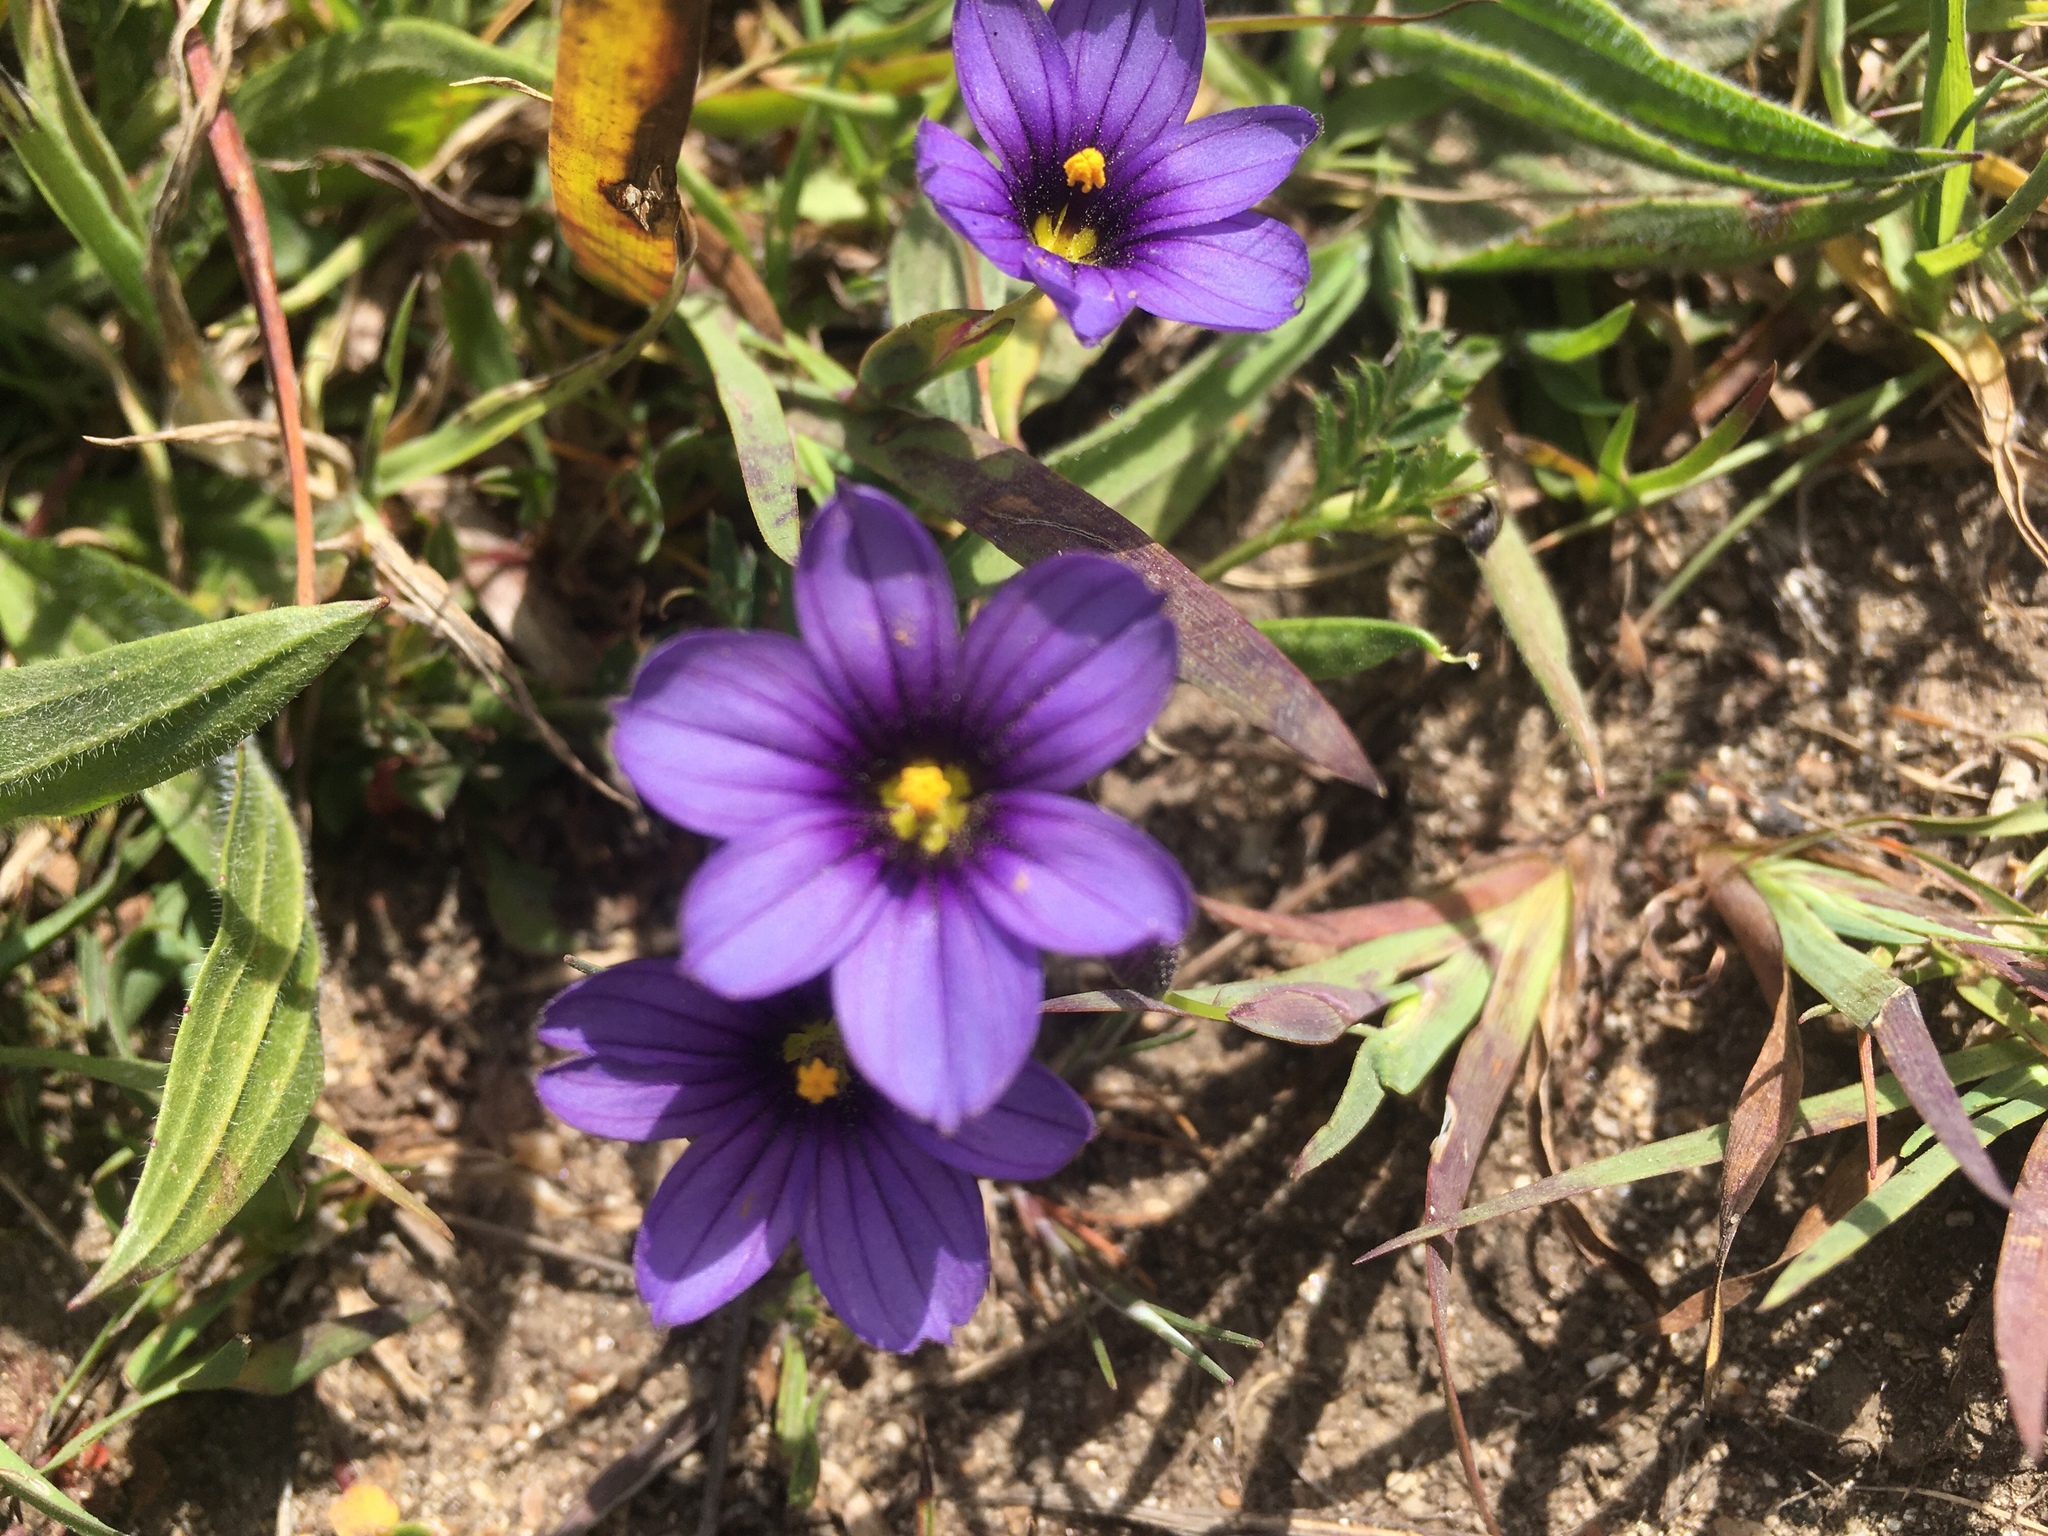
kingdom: Plantae
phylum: Tracheophyta
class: Liliopsida
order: Asparagales
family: Iridaceae
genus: Sisyrinchium
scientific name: Sisyrinchium bellum
